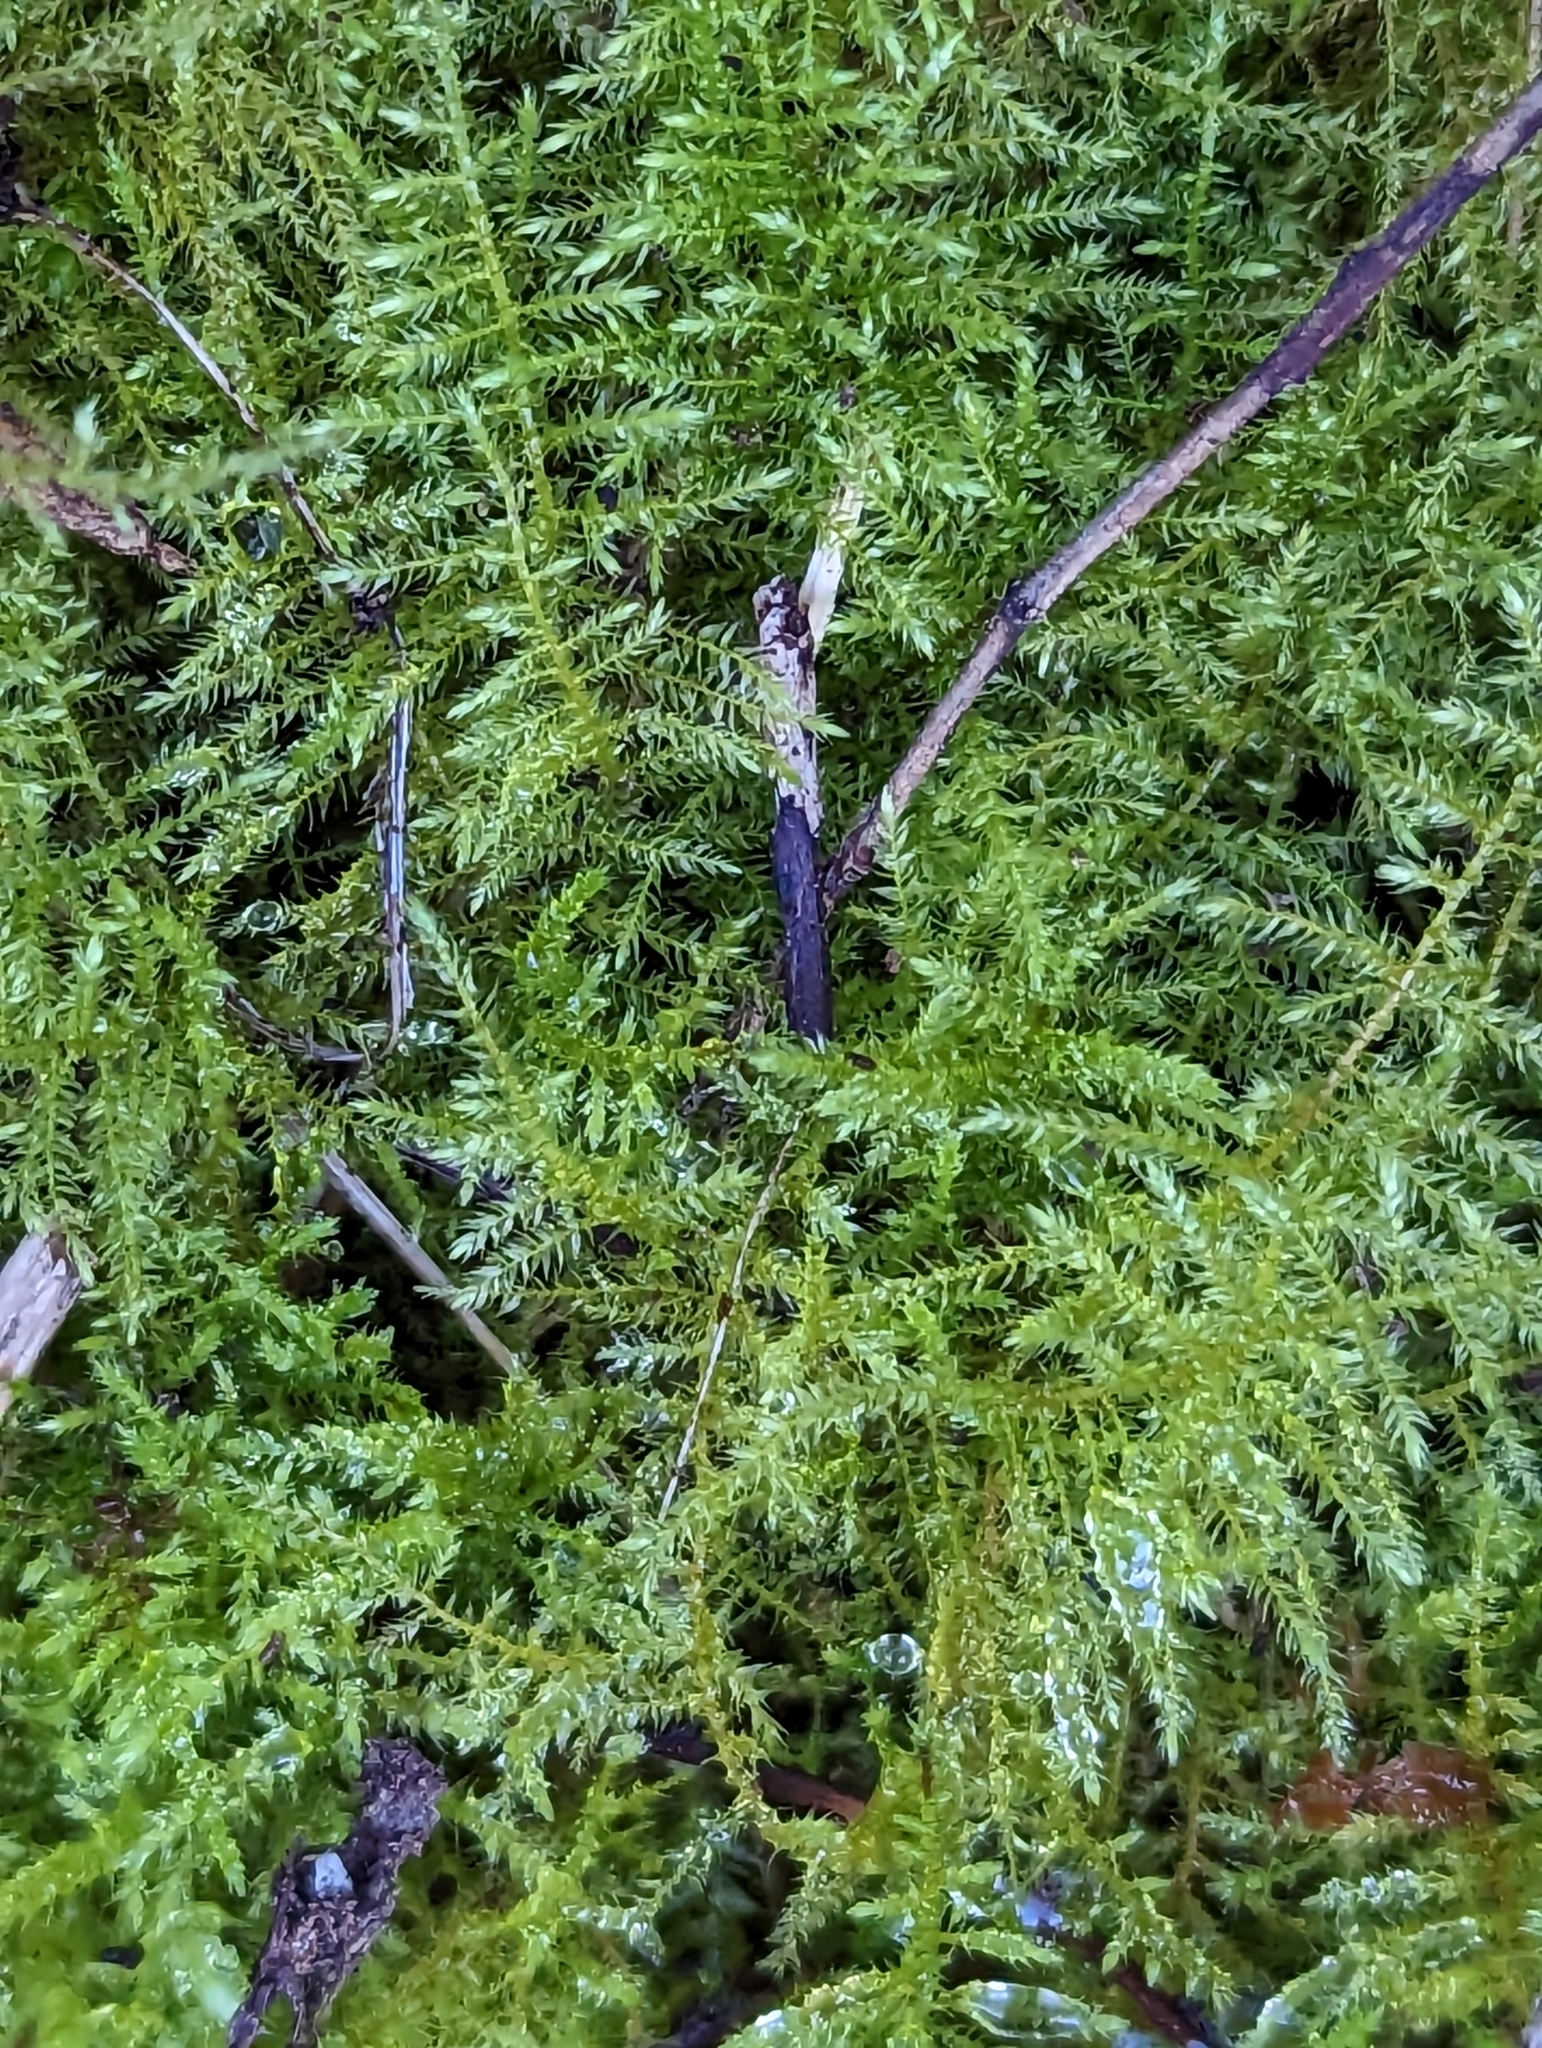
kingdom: Plantae
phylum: Bryophyta
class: Bryopsida
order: Hypnales
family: Brachytheciaceae
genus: Kindbergia
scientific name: Kindbergia praelonga
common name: Slender beaked moss
